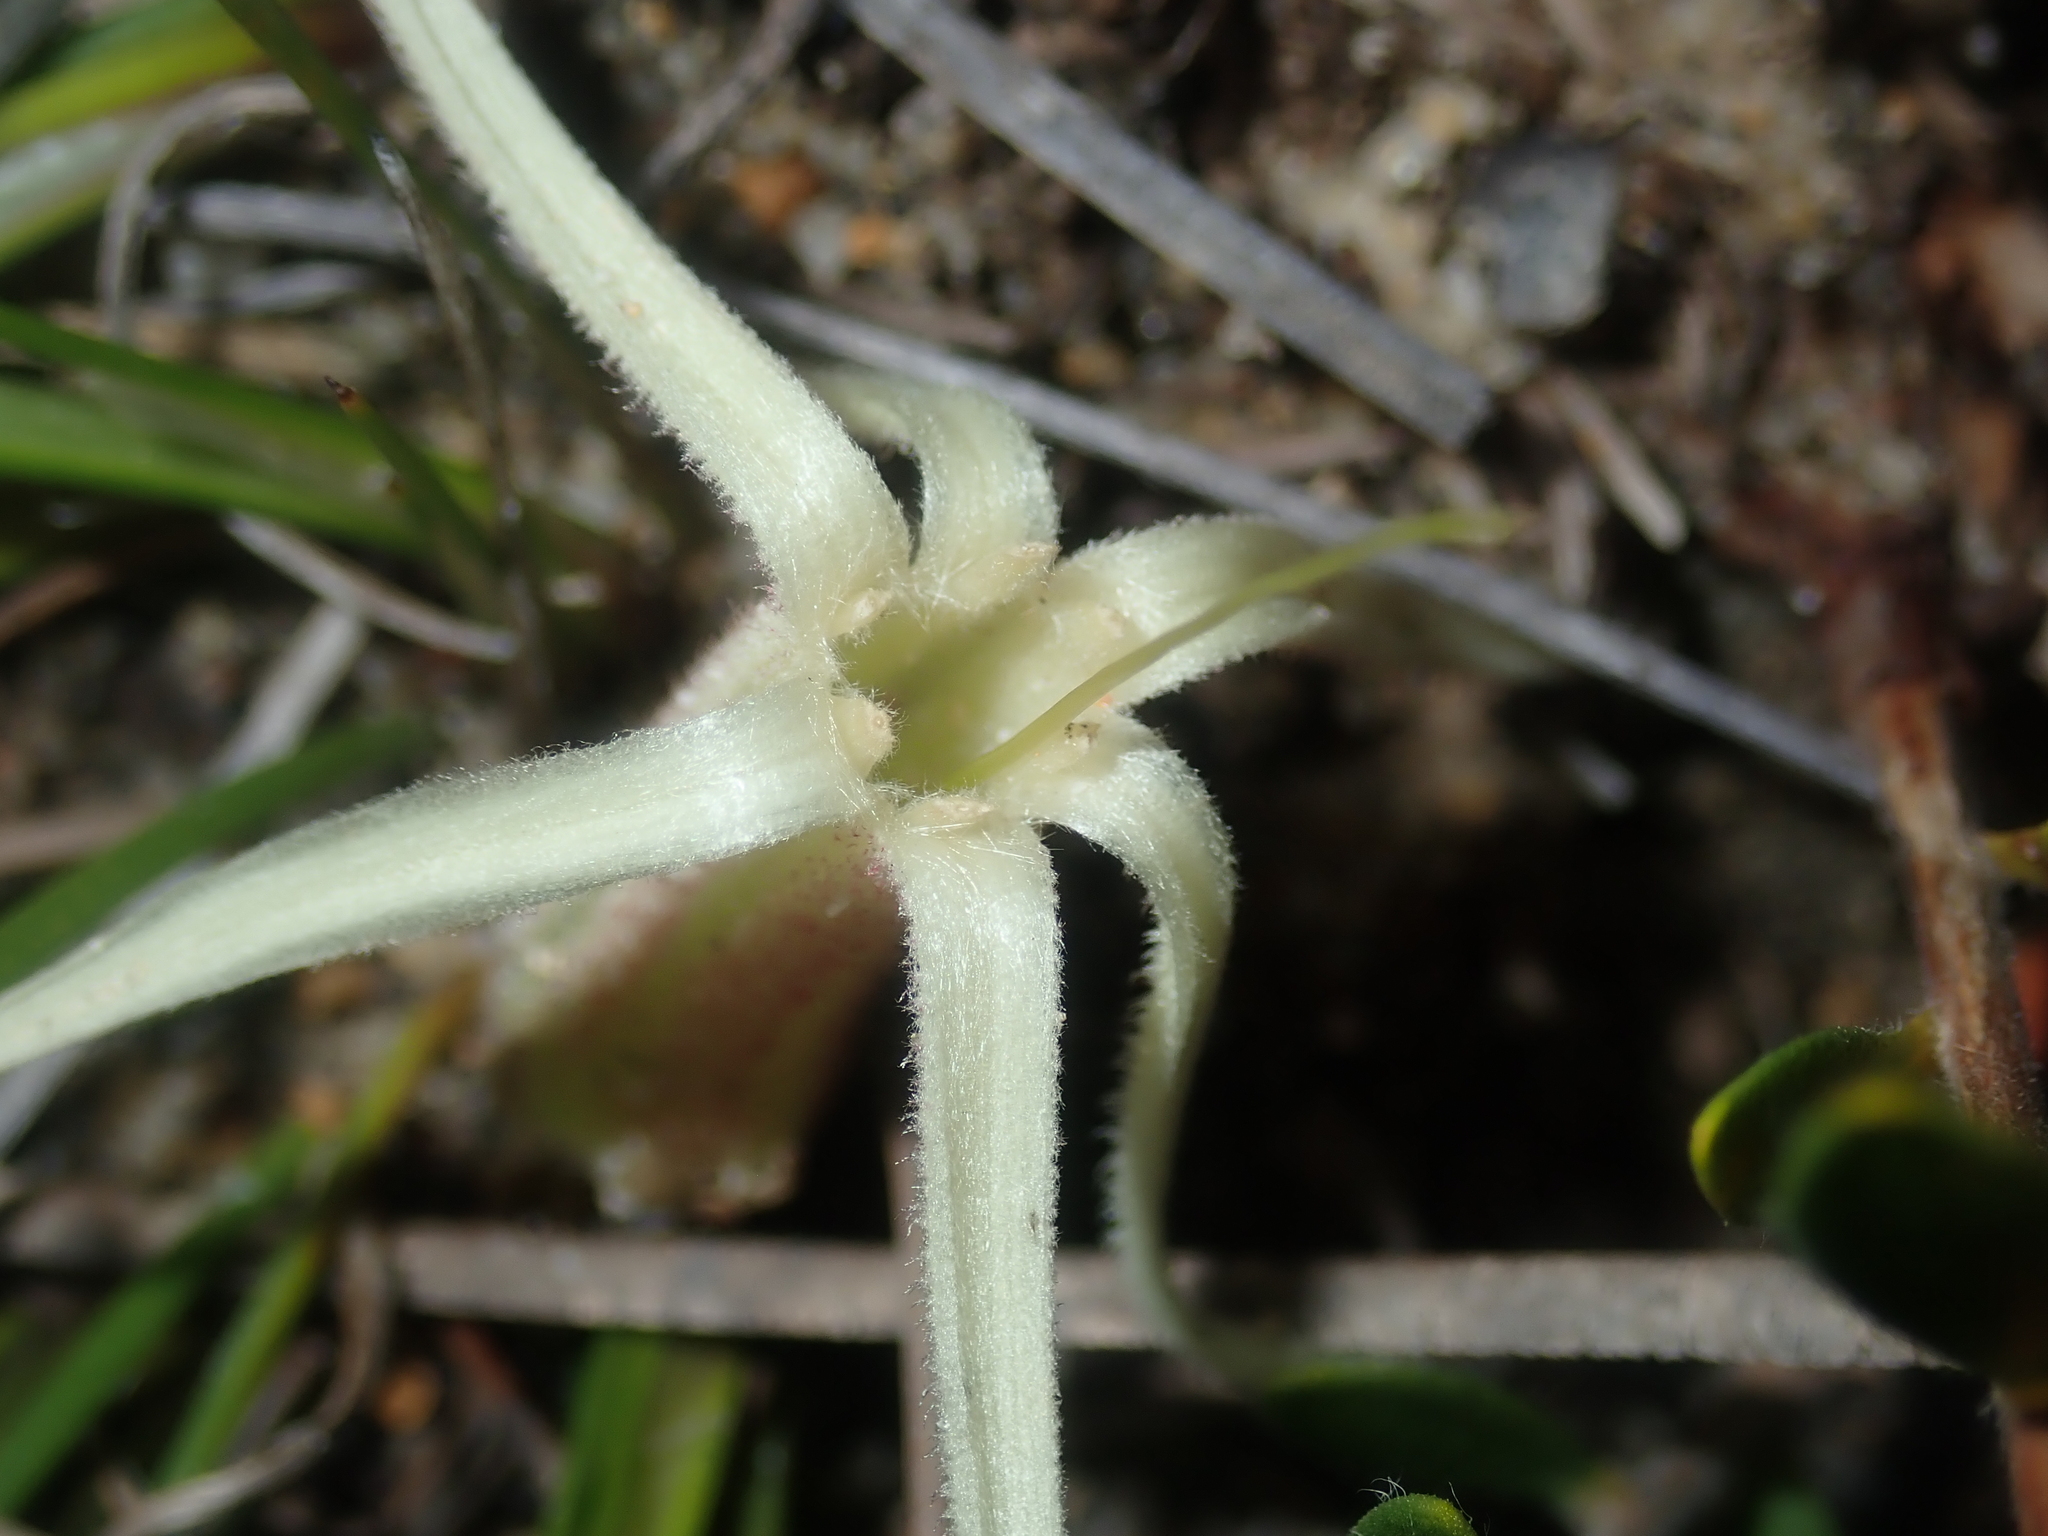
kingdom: Plantae
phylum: Tracheophyta
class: Liliopsida
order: Commelinales
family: Haemodoraceae
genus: Conostylis
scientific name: Conostylis androstemma
